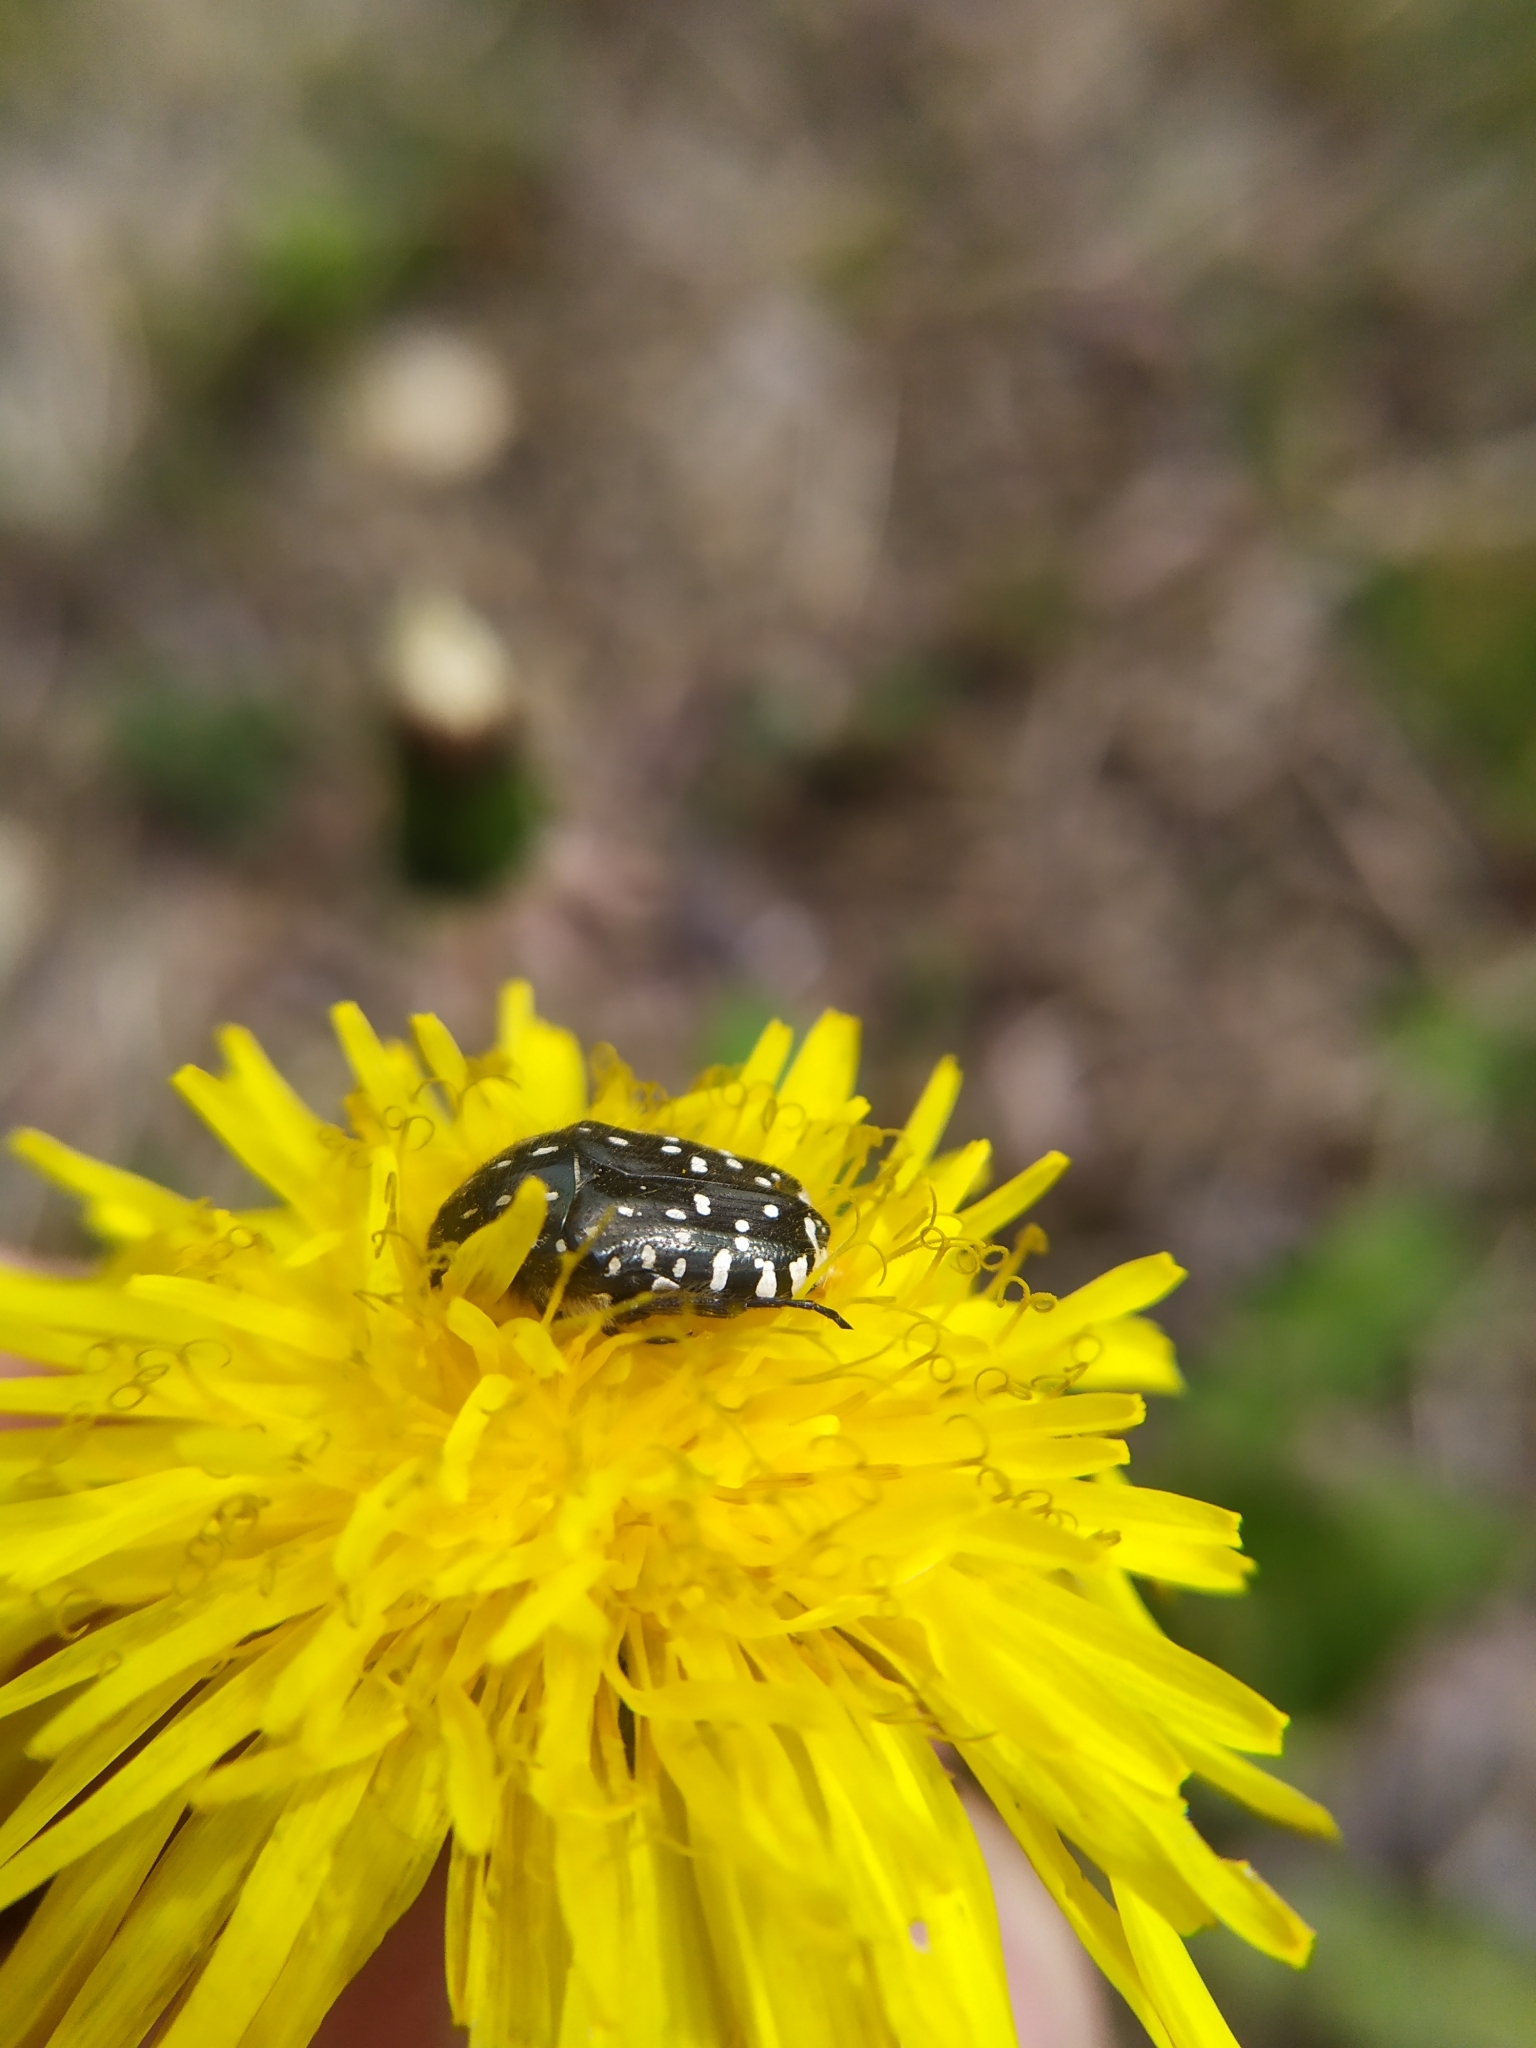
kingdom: Animalia
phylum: Arthropoda
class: Insecta
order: Coleoptera
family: Scarabaeidae
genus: Oxythyrea
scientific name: Oxythyrea funesta
